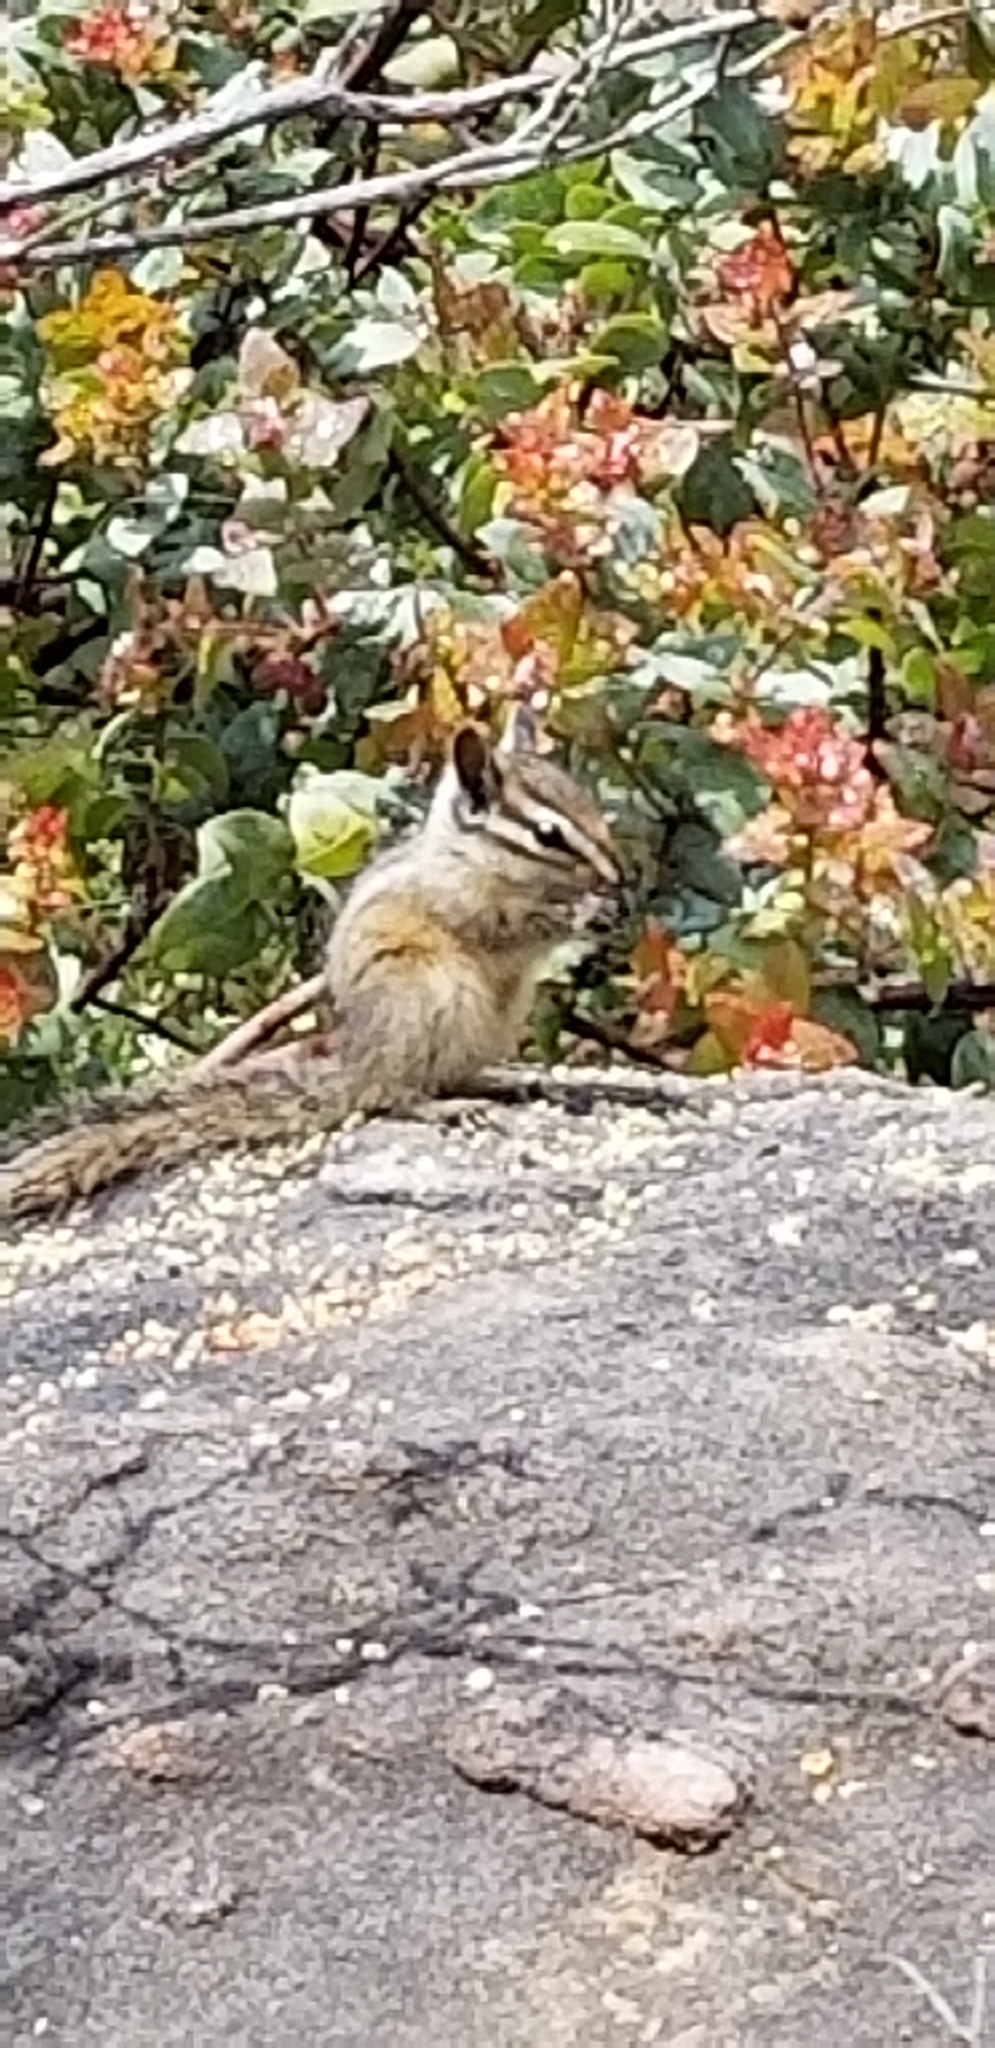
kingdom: Animalia
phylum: Chordata
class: Mammalia
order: Rodentia
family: Sciuridae
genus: Tamias
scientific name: Tamias merriami
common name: Merriam's chipmunk
